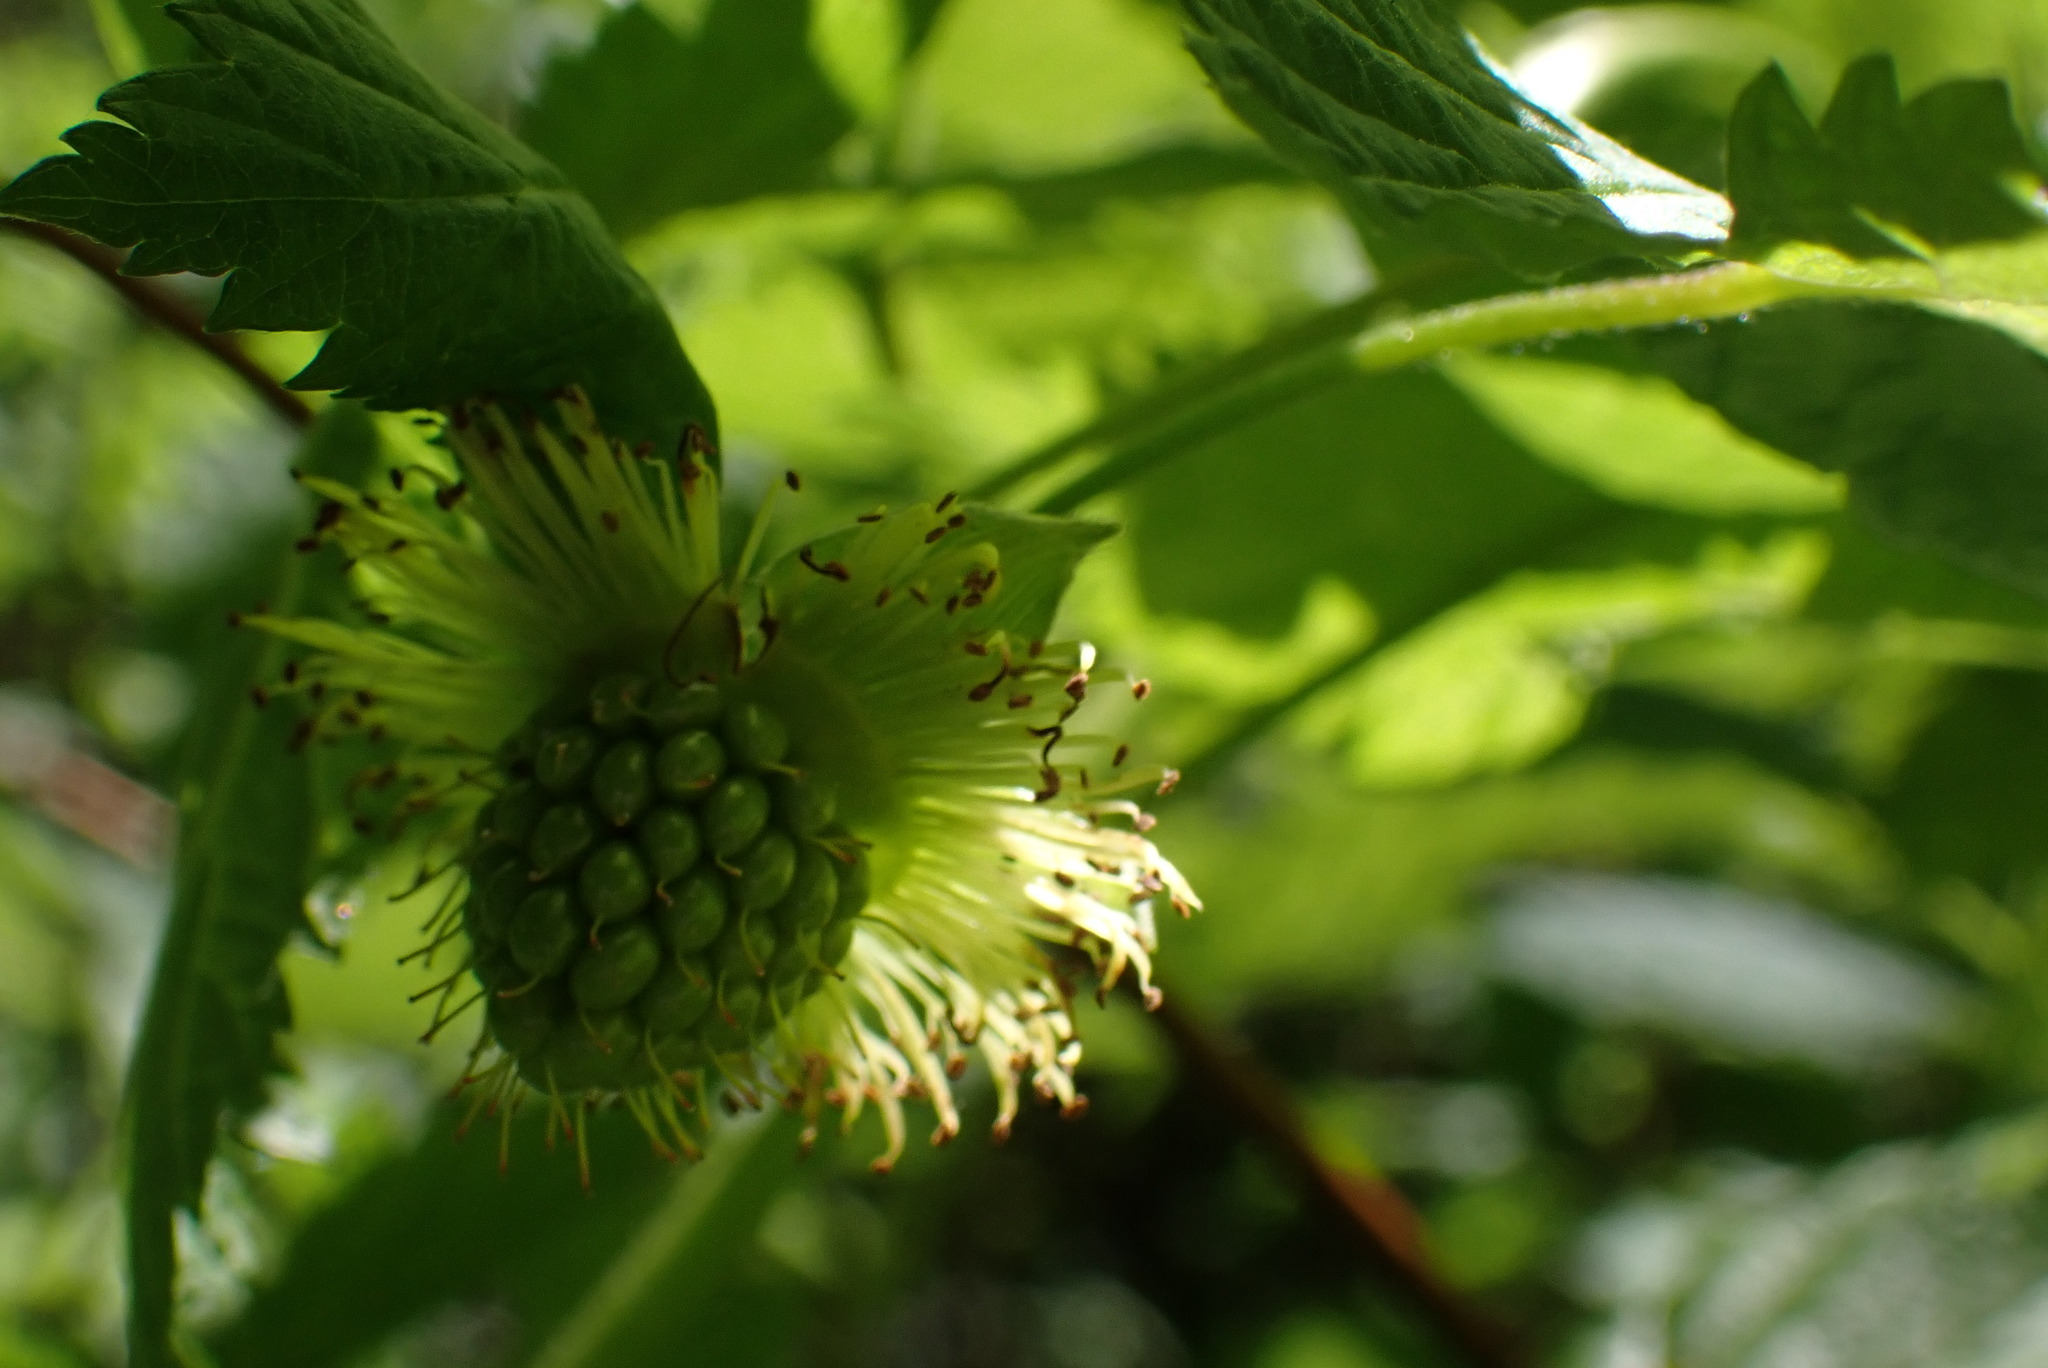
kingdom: Plantae
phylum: Tracheophyta
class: Magnoliopsida
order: Rosales
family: Rosaceae
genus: Rubus
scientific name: Rubus spectabilis
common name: Salmonberry
